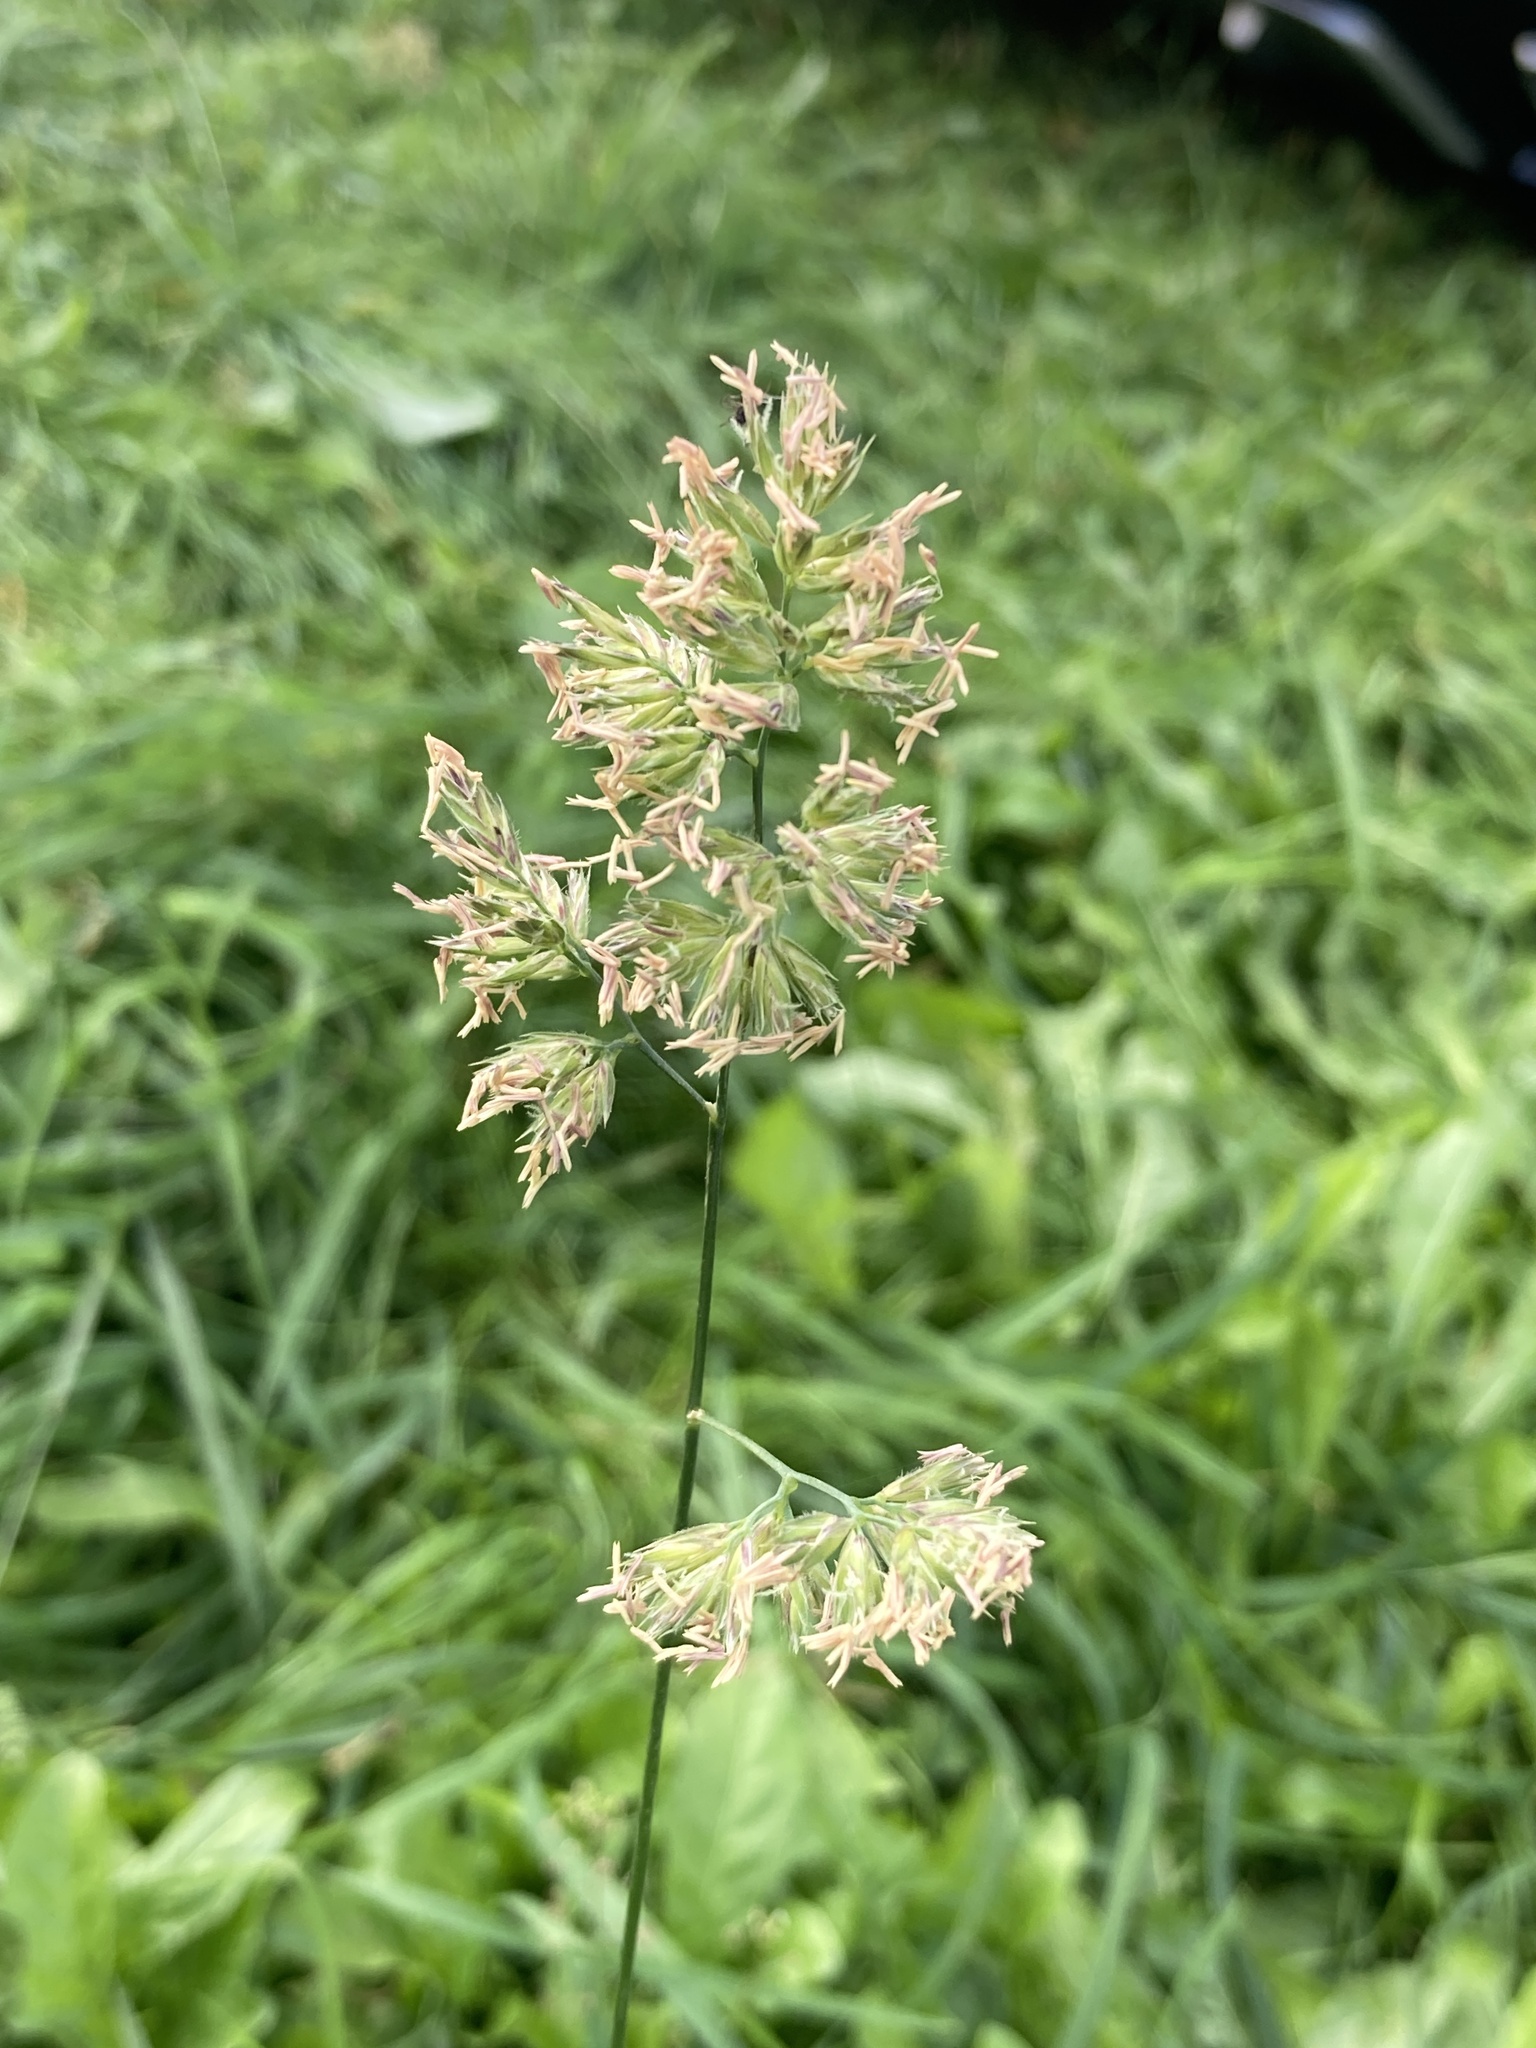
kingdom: Plantae
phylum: Tracheophyta
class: Liliopsida
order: Poales
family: Poaceae
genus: Dactylis
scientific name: Dactylis glomerata
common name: Orchardgrass
